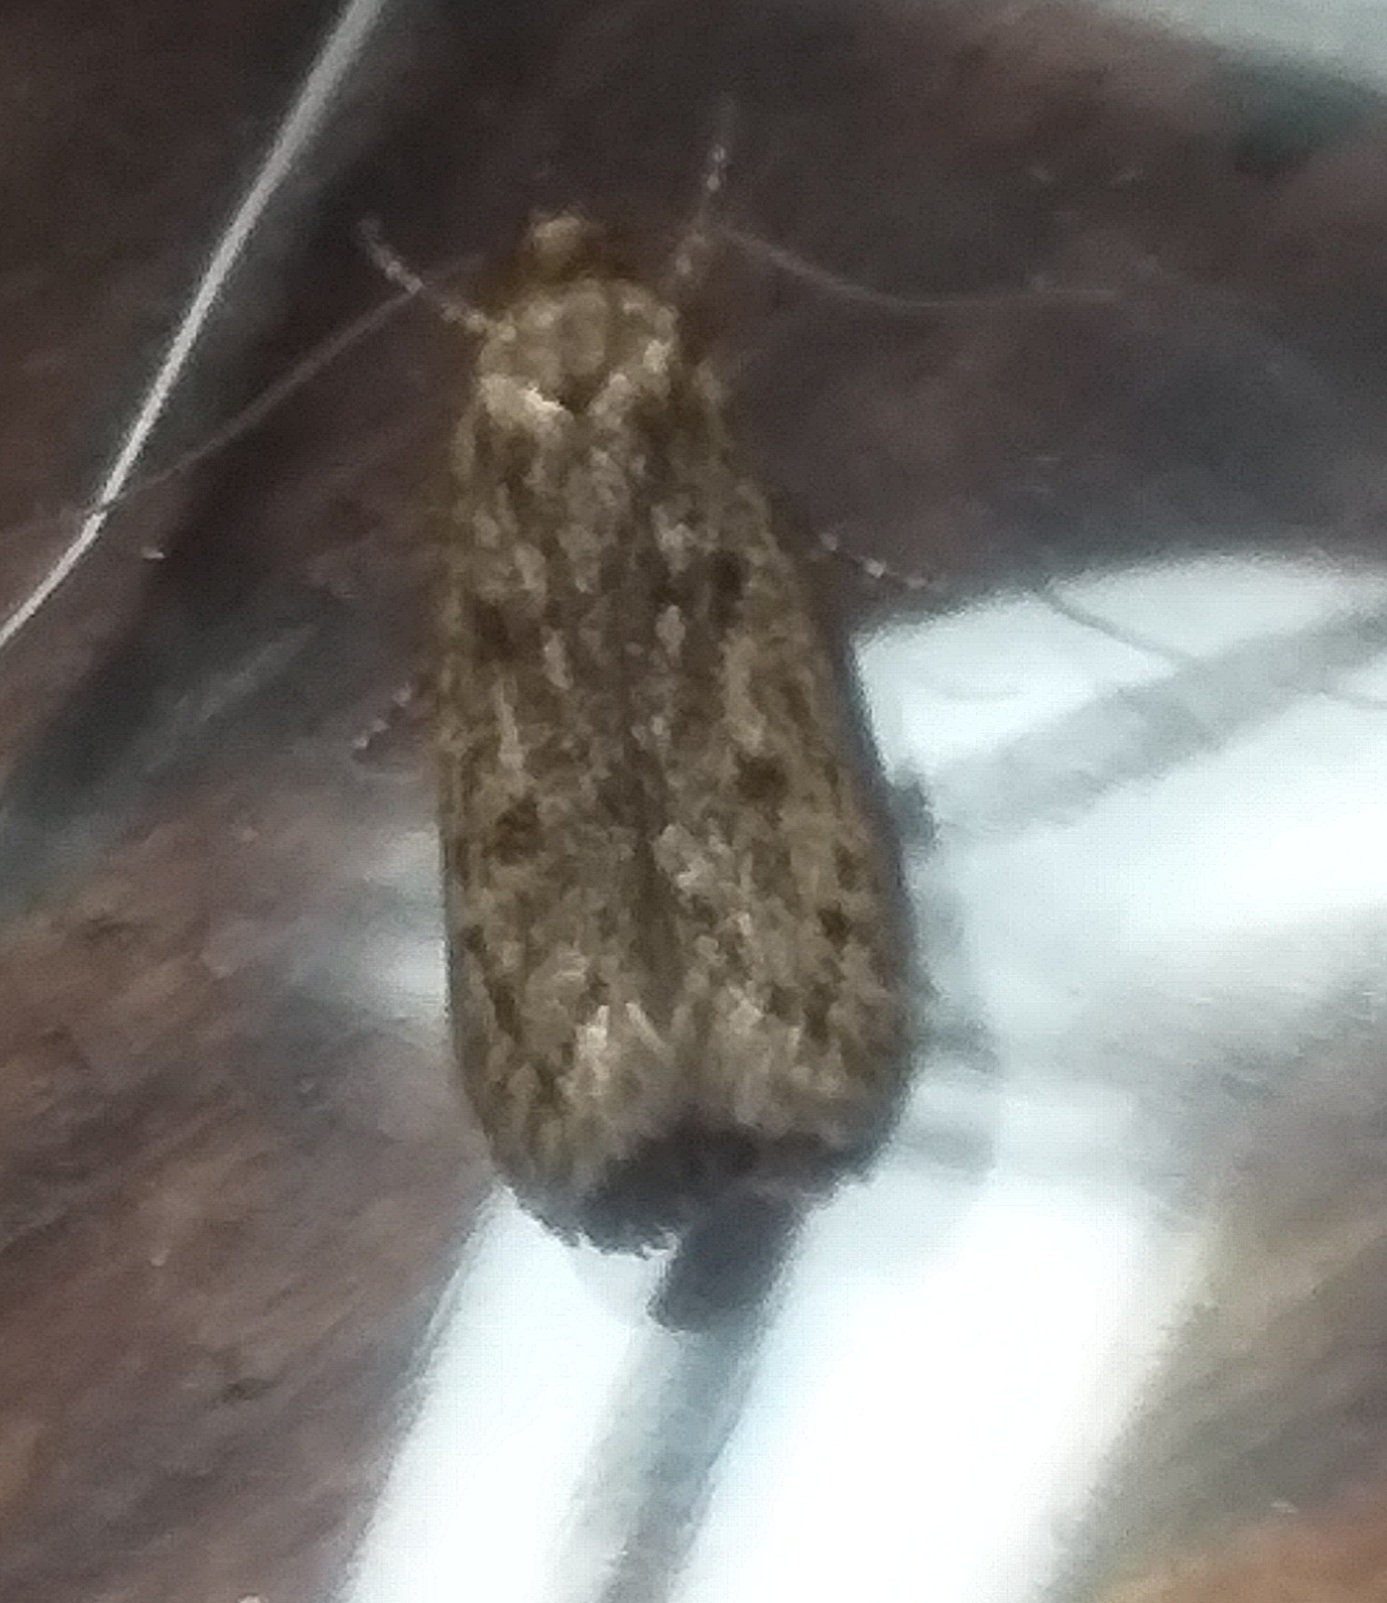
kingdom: Animalia
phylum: Arthropoda
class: Insecta
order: Lepidoptera
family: Oecophoridae
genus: Hofmannophila
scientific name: Hofmannophila pseudospretella
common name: Brown house moth
